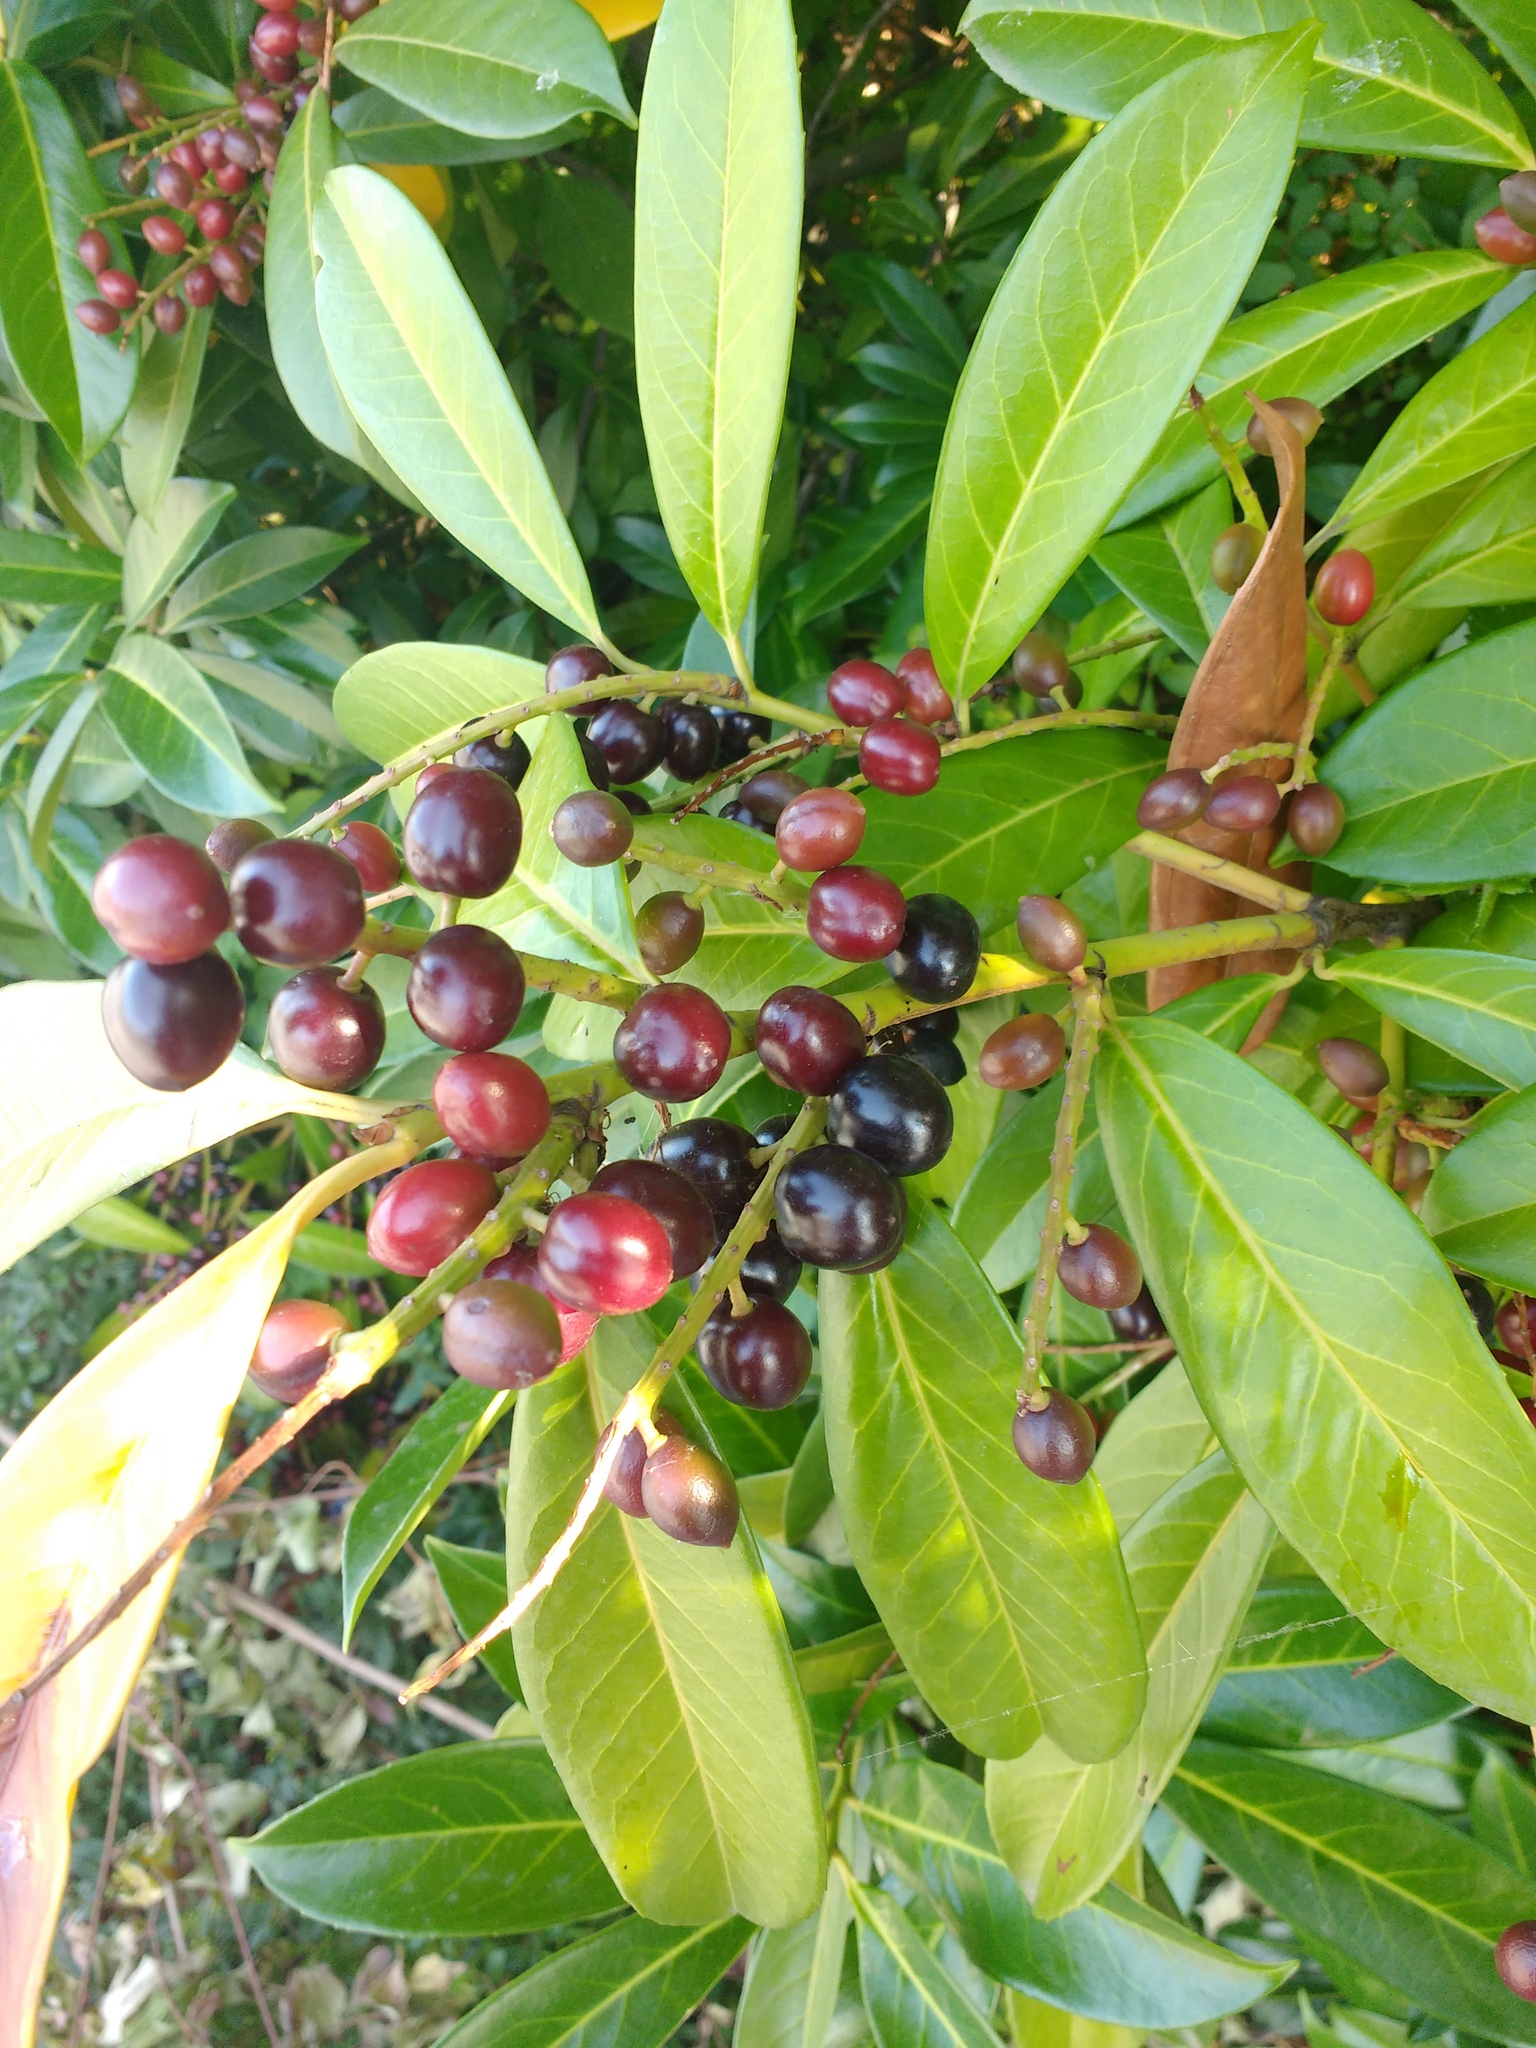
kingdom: Plantae
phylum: Tracheophyta
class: Magnoliopsida
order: Rosales
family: Rosaceae
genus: Prunus
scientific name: Prunus laurocerasus
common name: Cherry laurel
